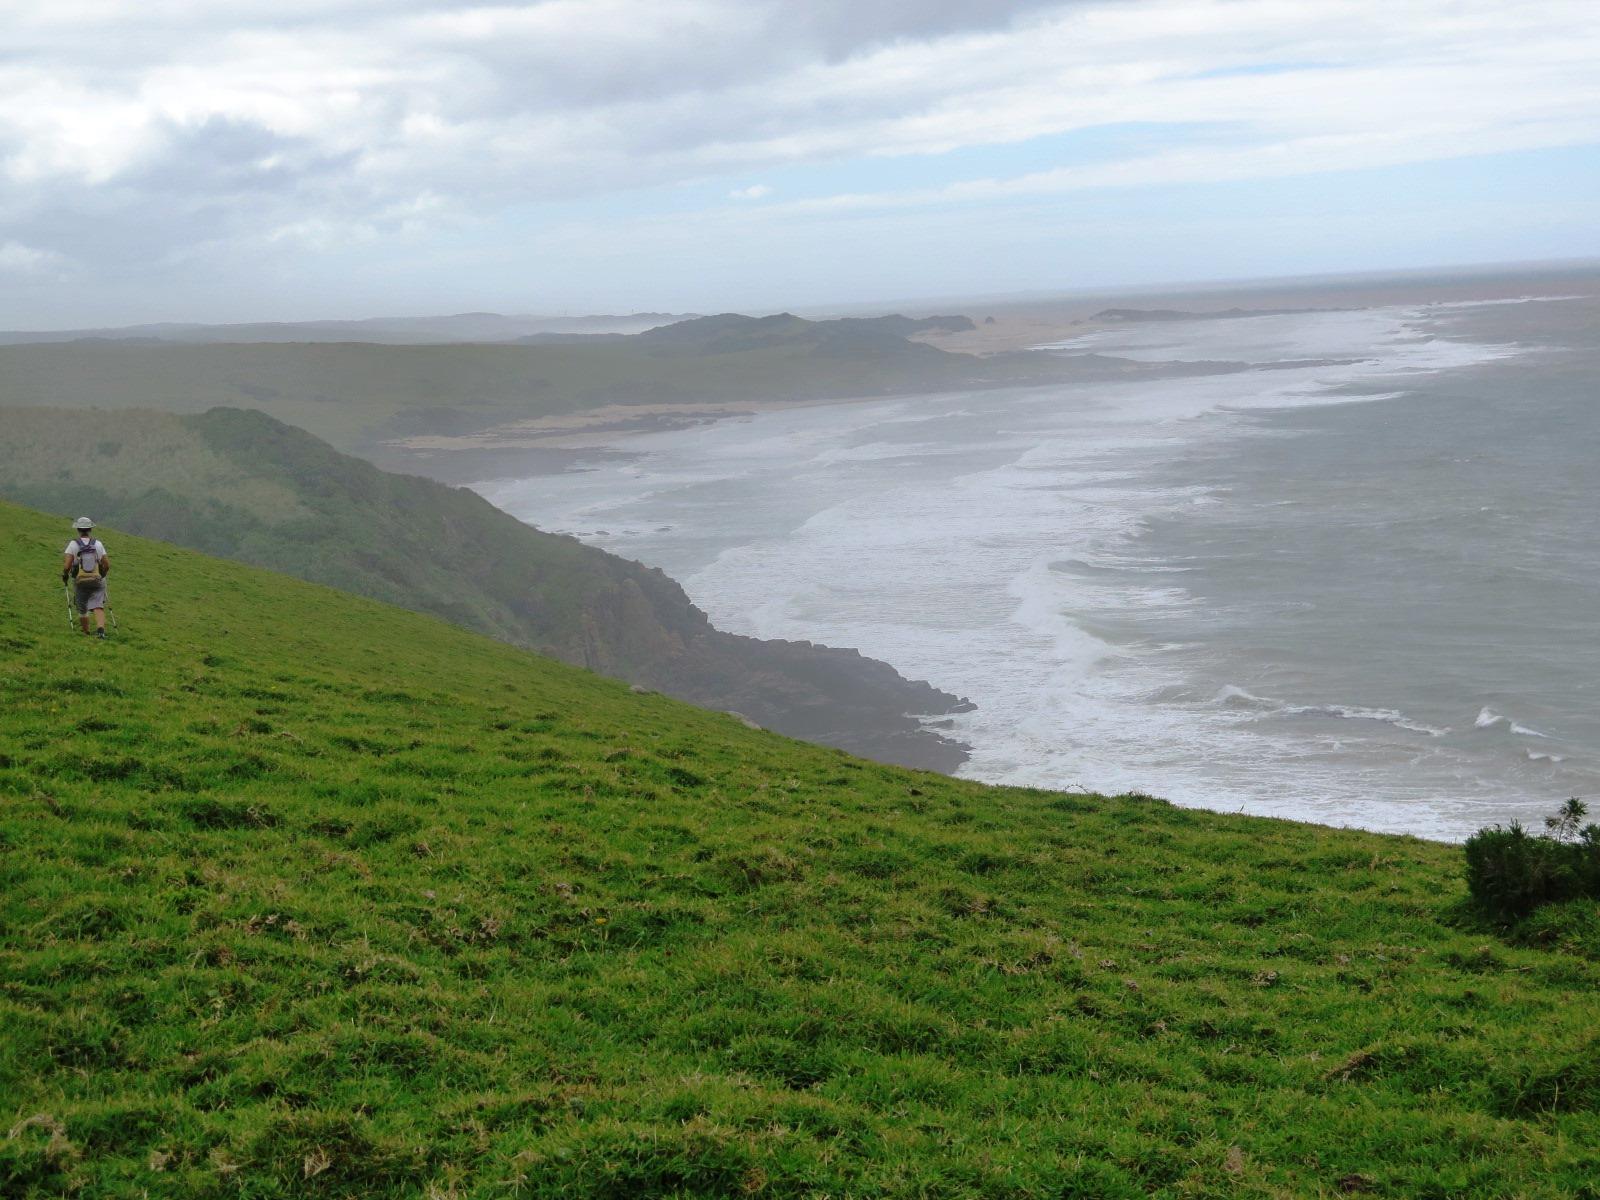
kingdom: Plantae
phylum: Tracheophyta
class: Liliopsida
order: Poales
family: Poaceae
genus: Stenotaphrum
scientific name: Stenotaphrum secundatum
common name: St. augustine grass
